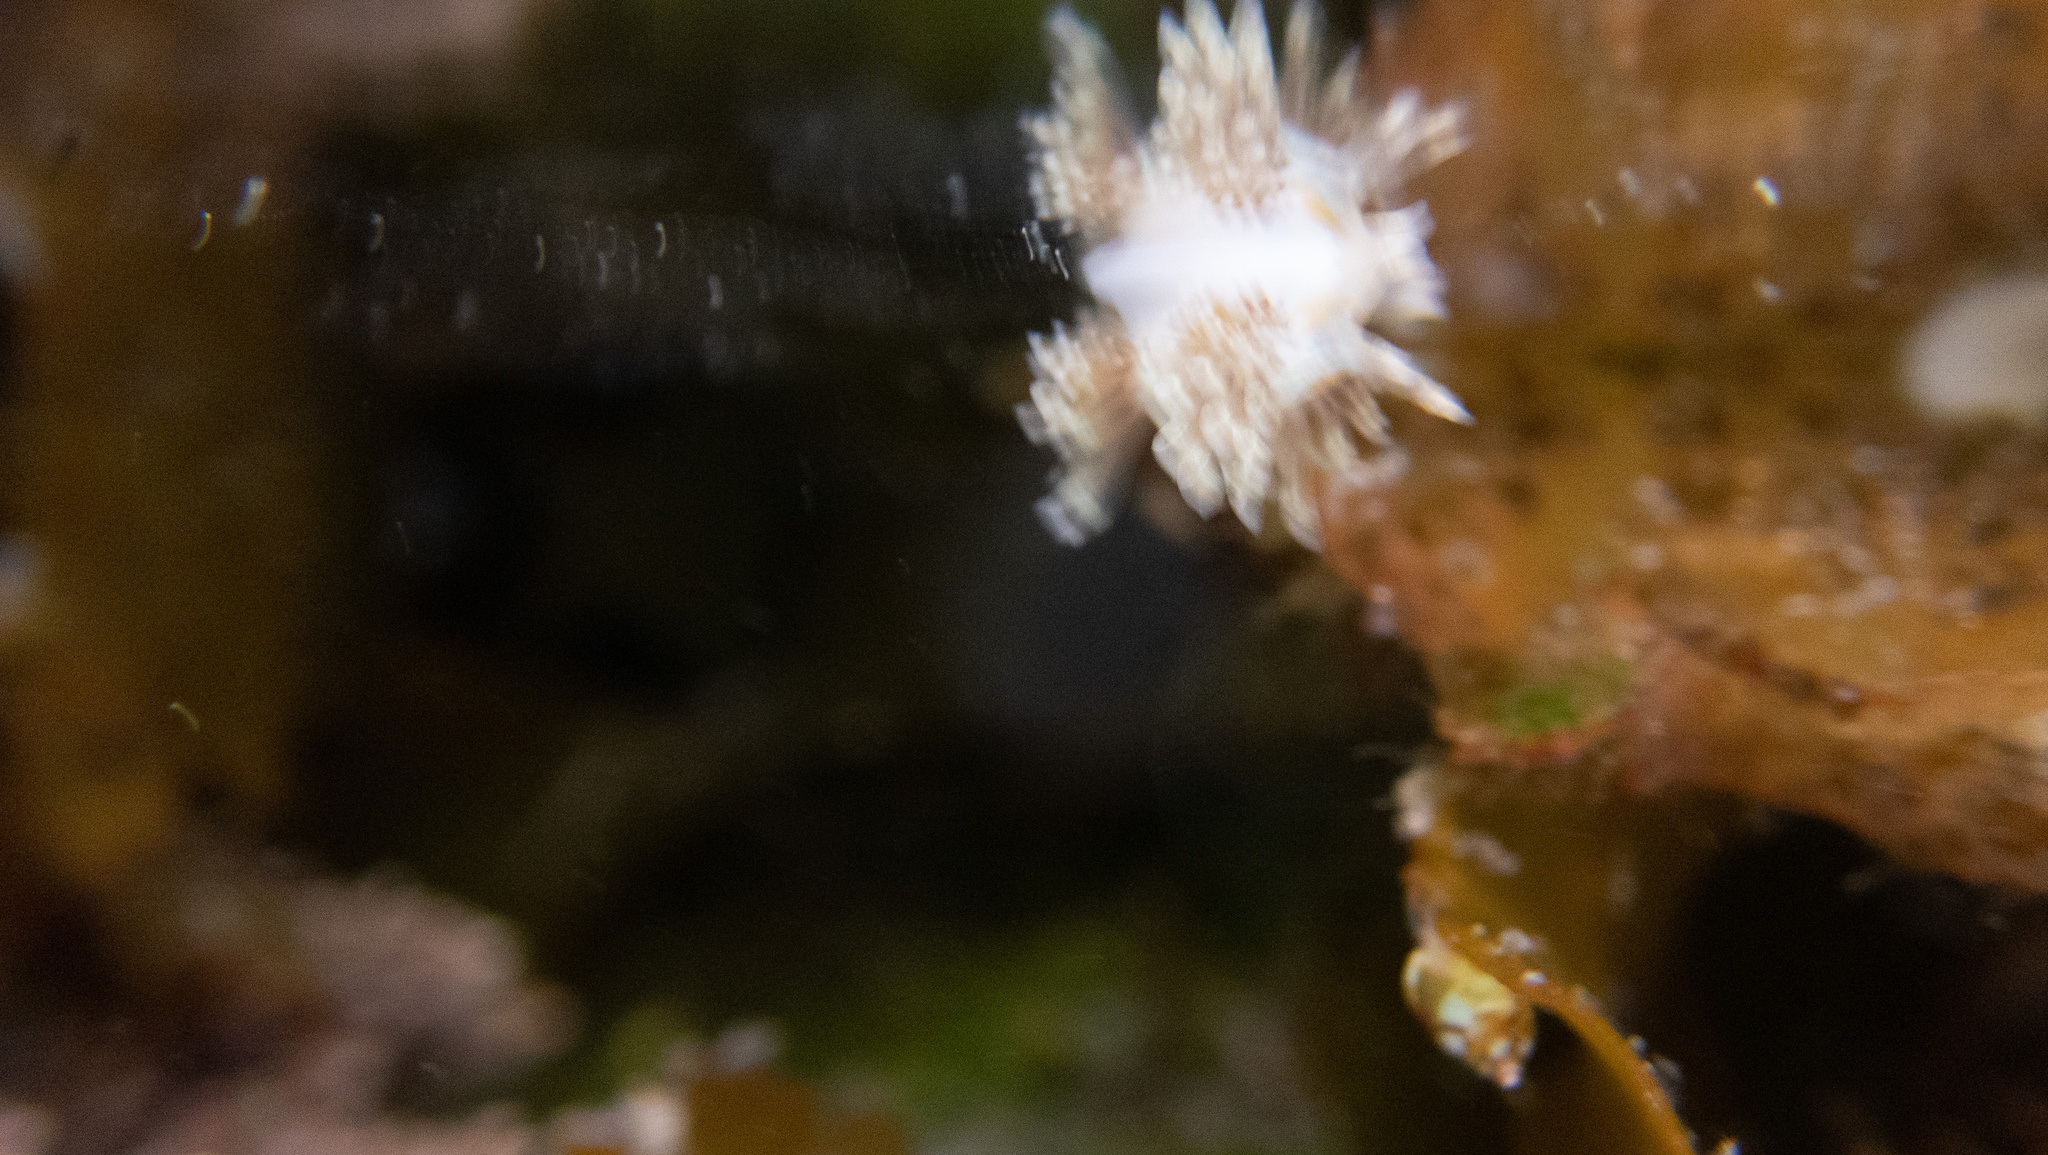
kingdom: Animalia
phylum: Mollusca
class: Gastropoda
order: Nudibranchia
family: Myrrhinidae
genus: Hermissenda
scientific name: Hermissenda opalescens
